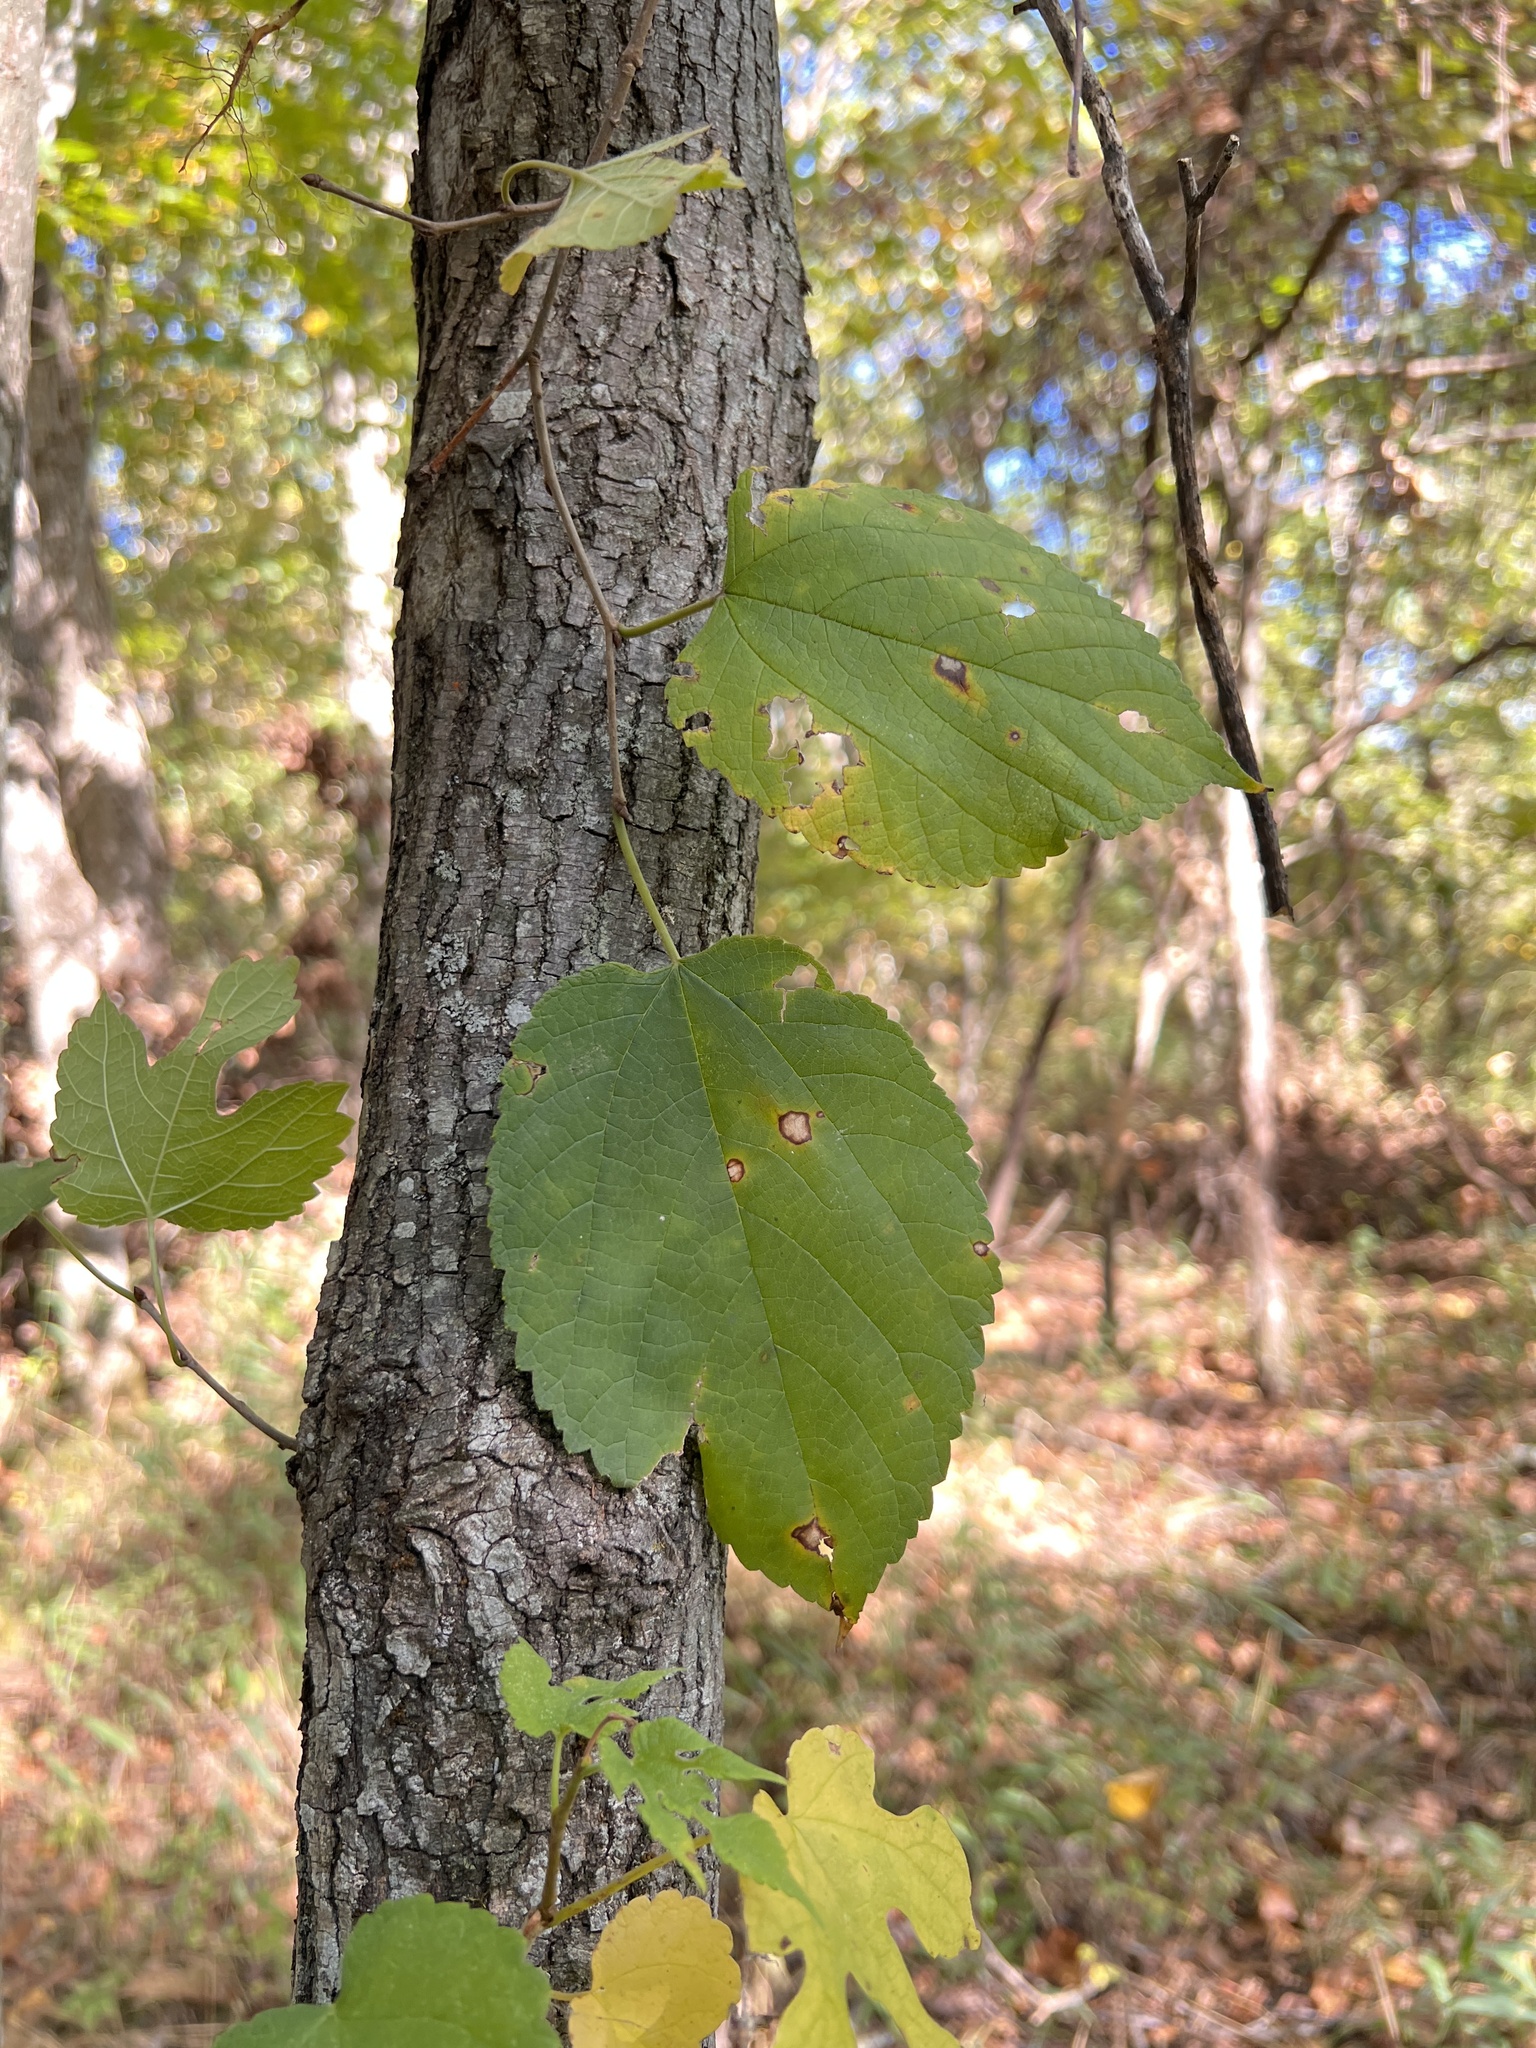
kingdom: Plantae
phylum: Tracheophyta
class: Magnoliopsida
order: Rosales
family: Moraceae
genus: Morus
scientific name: Morus rubra
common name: Red mulberry
